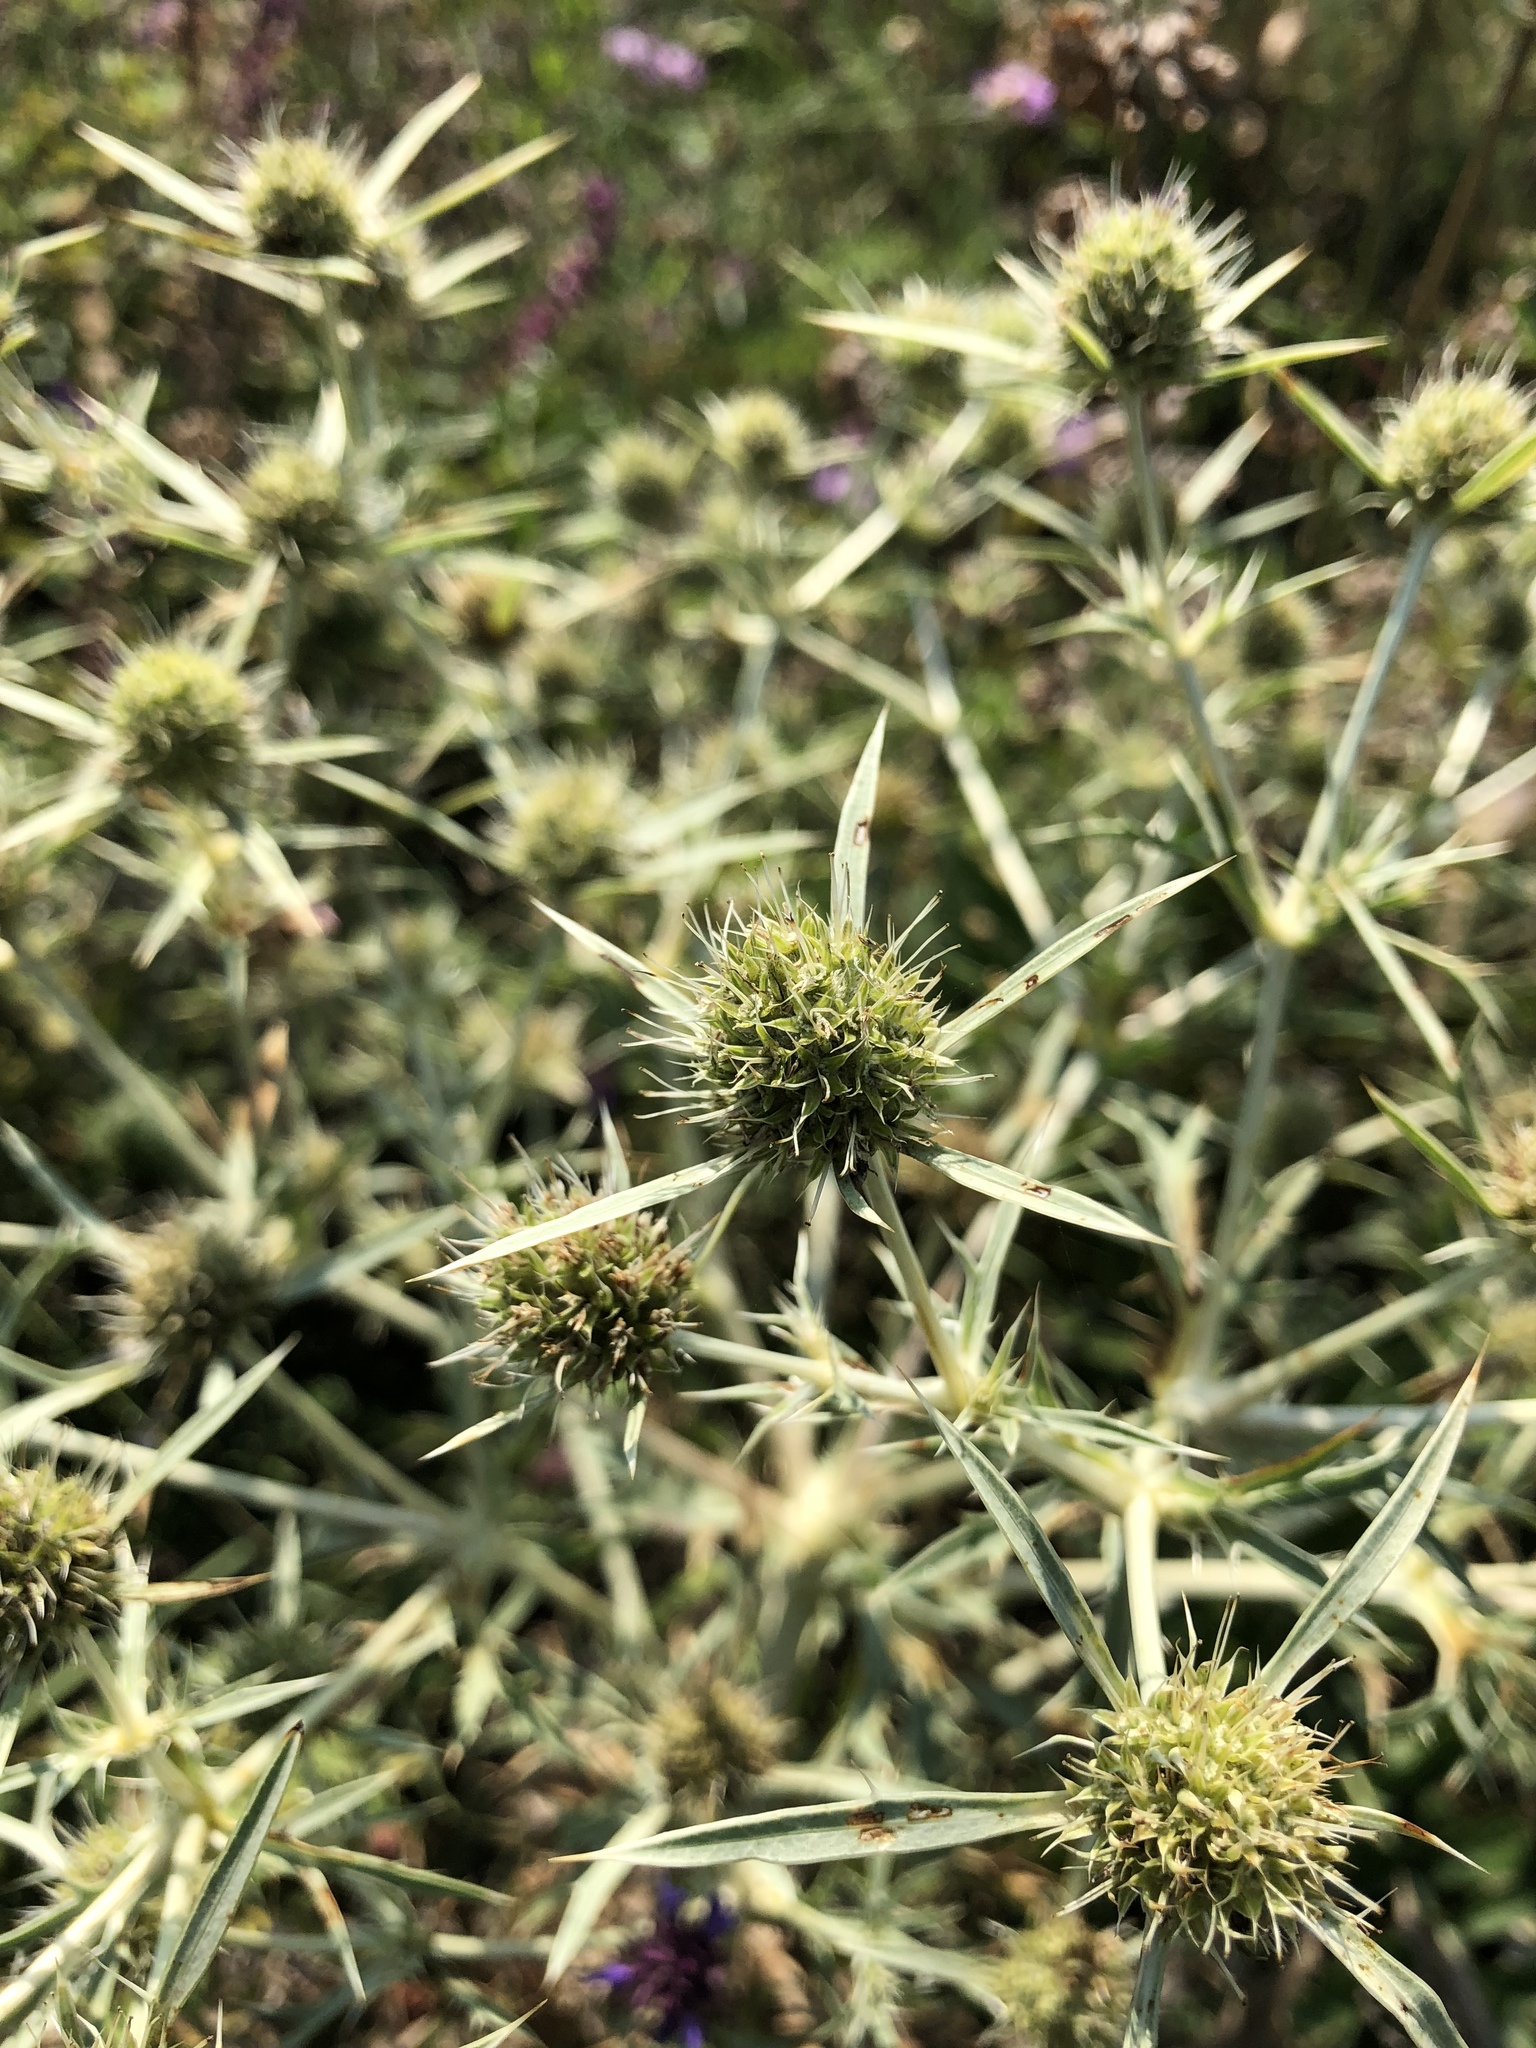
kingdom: Plantae
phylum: Tracheophyta
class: Magnoliopsida
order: Apiales
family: Apiaceae
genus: Eryngium
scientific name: Eryngium campestre
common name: Field eryngo
